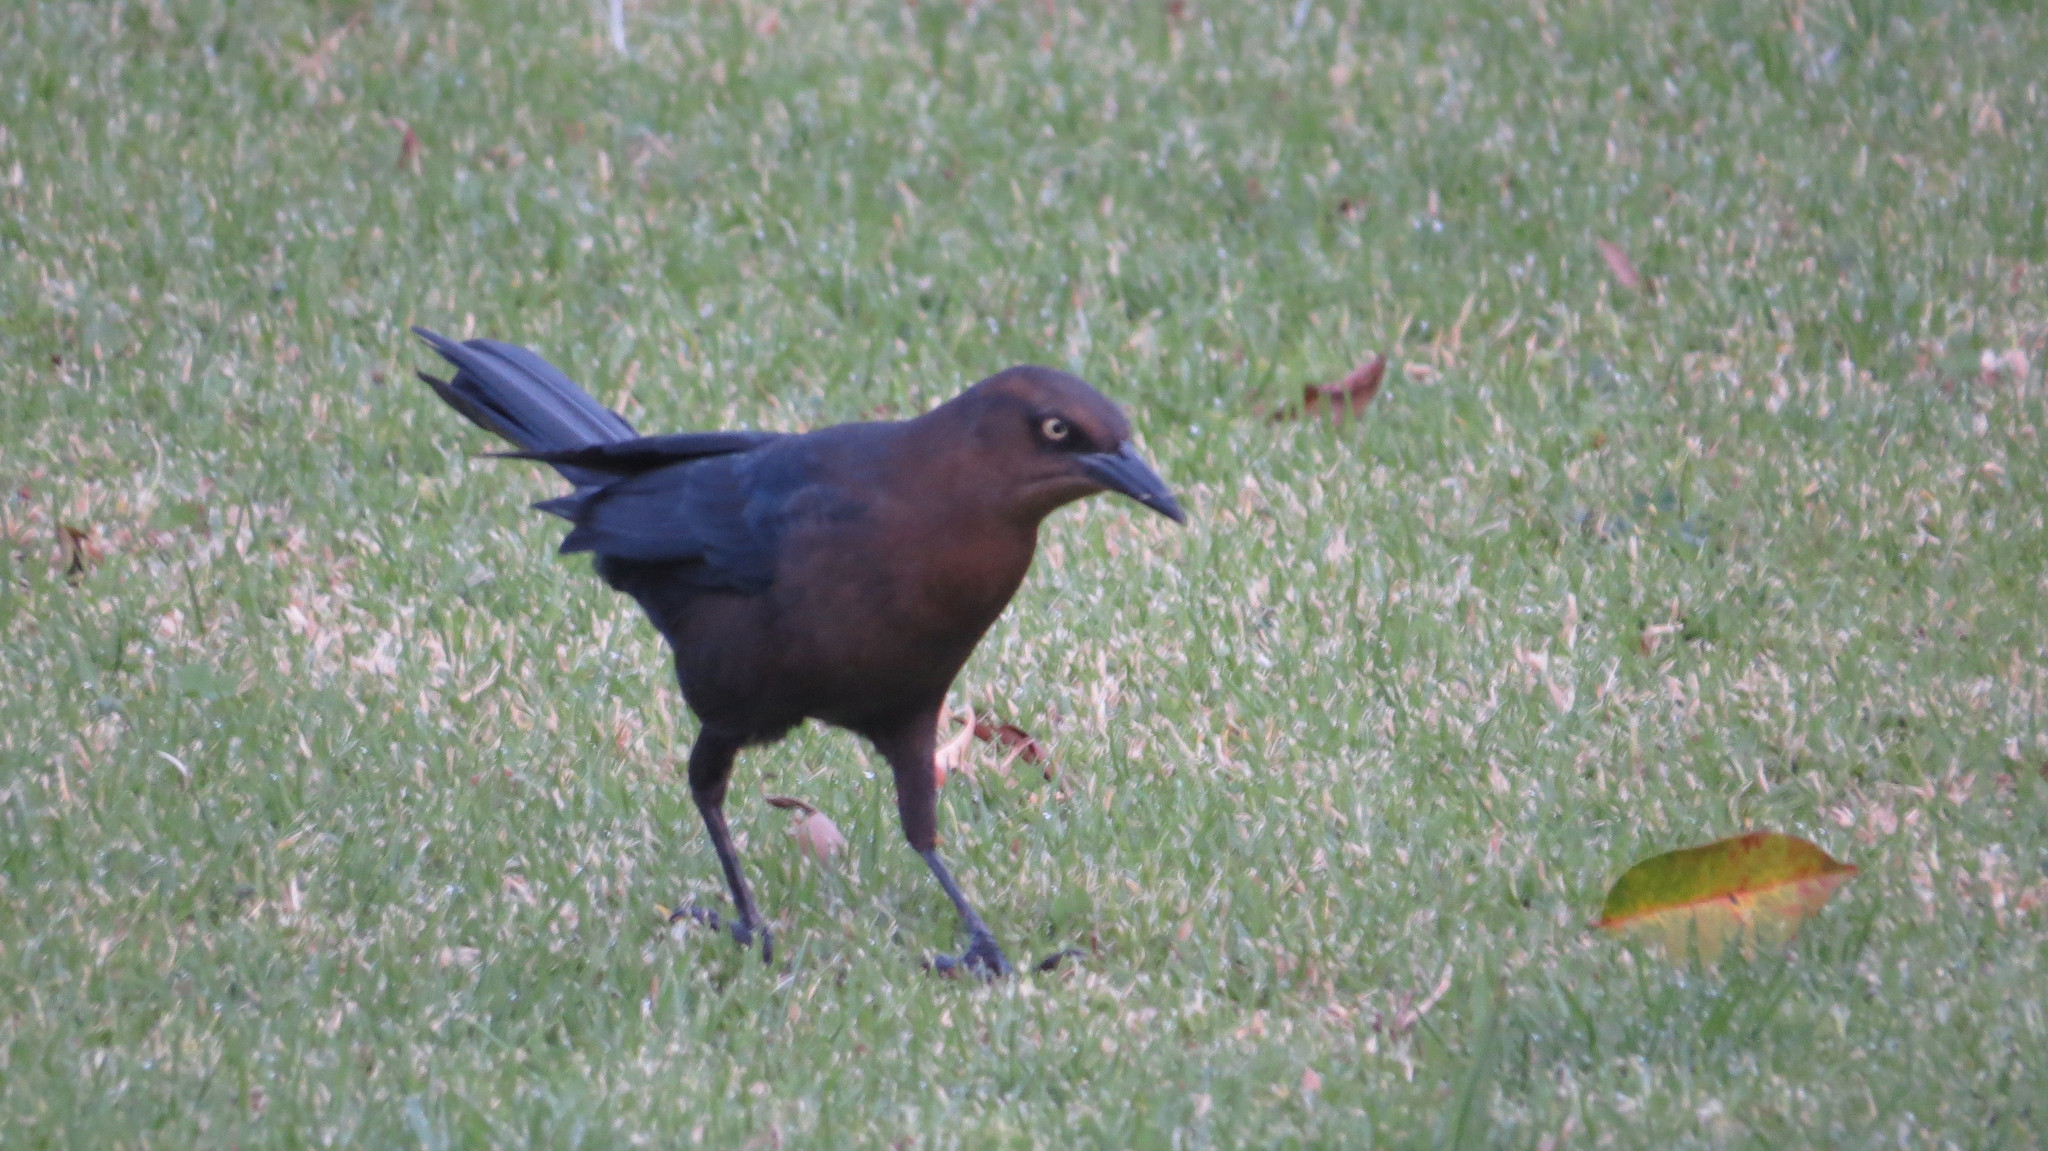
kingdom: Animalia
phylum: Chordata
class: Aves
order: Passeriformes
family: Icteridae
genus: Quiscalus
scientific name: Quiscalus mexicanus
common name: Great-tailed grackle
